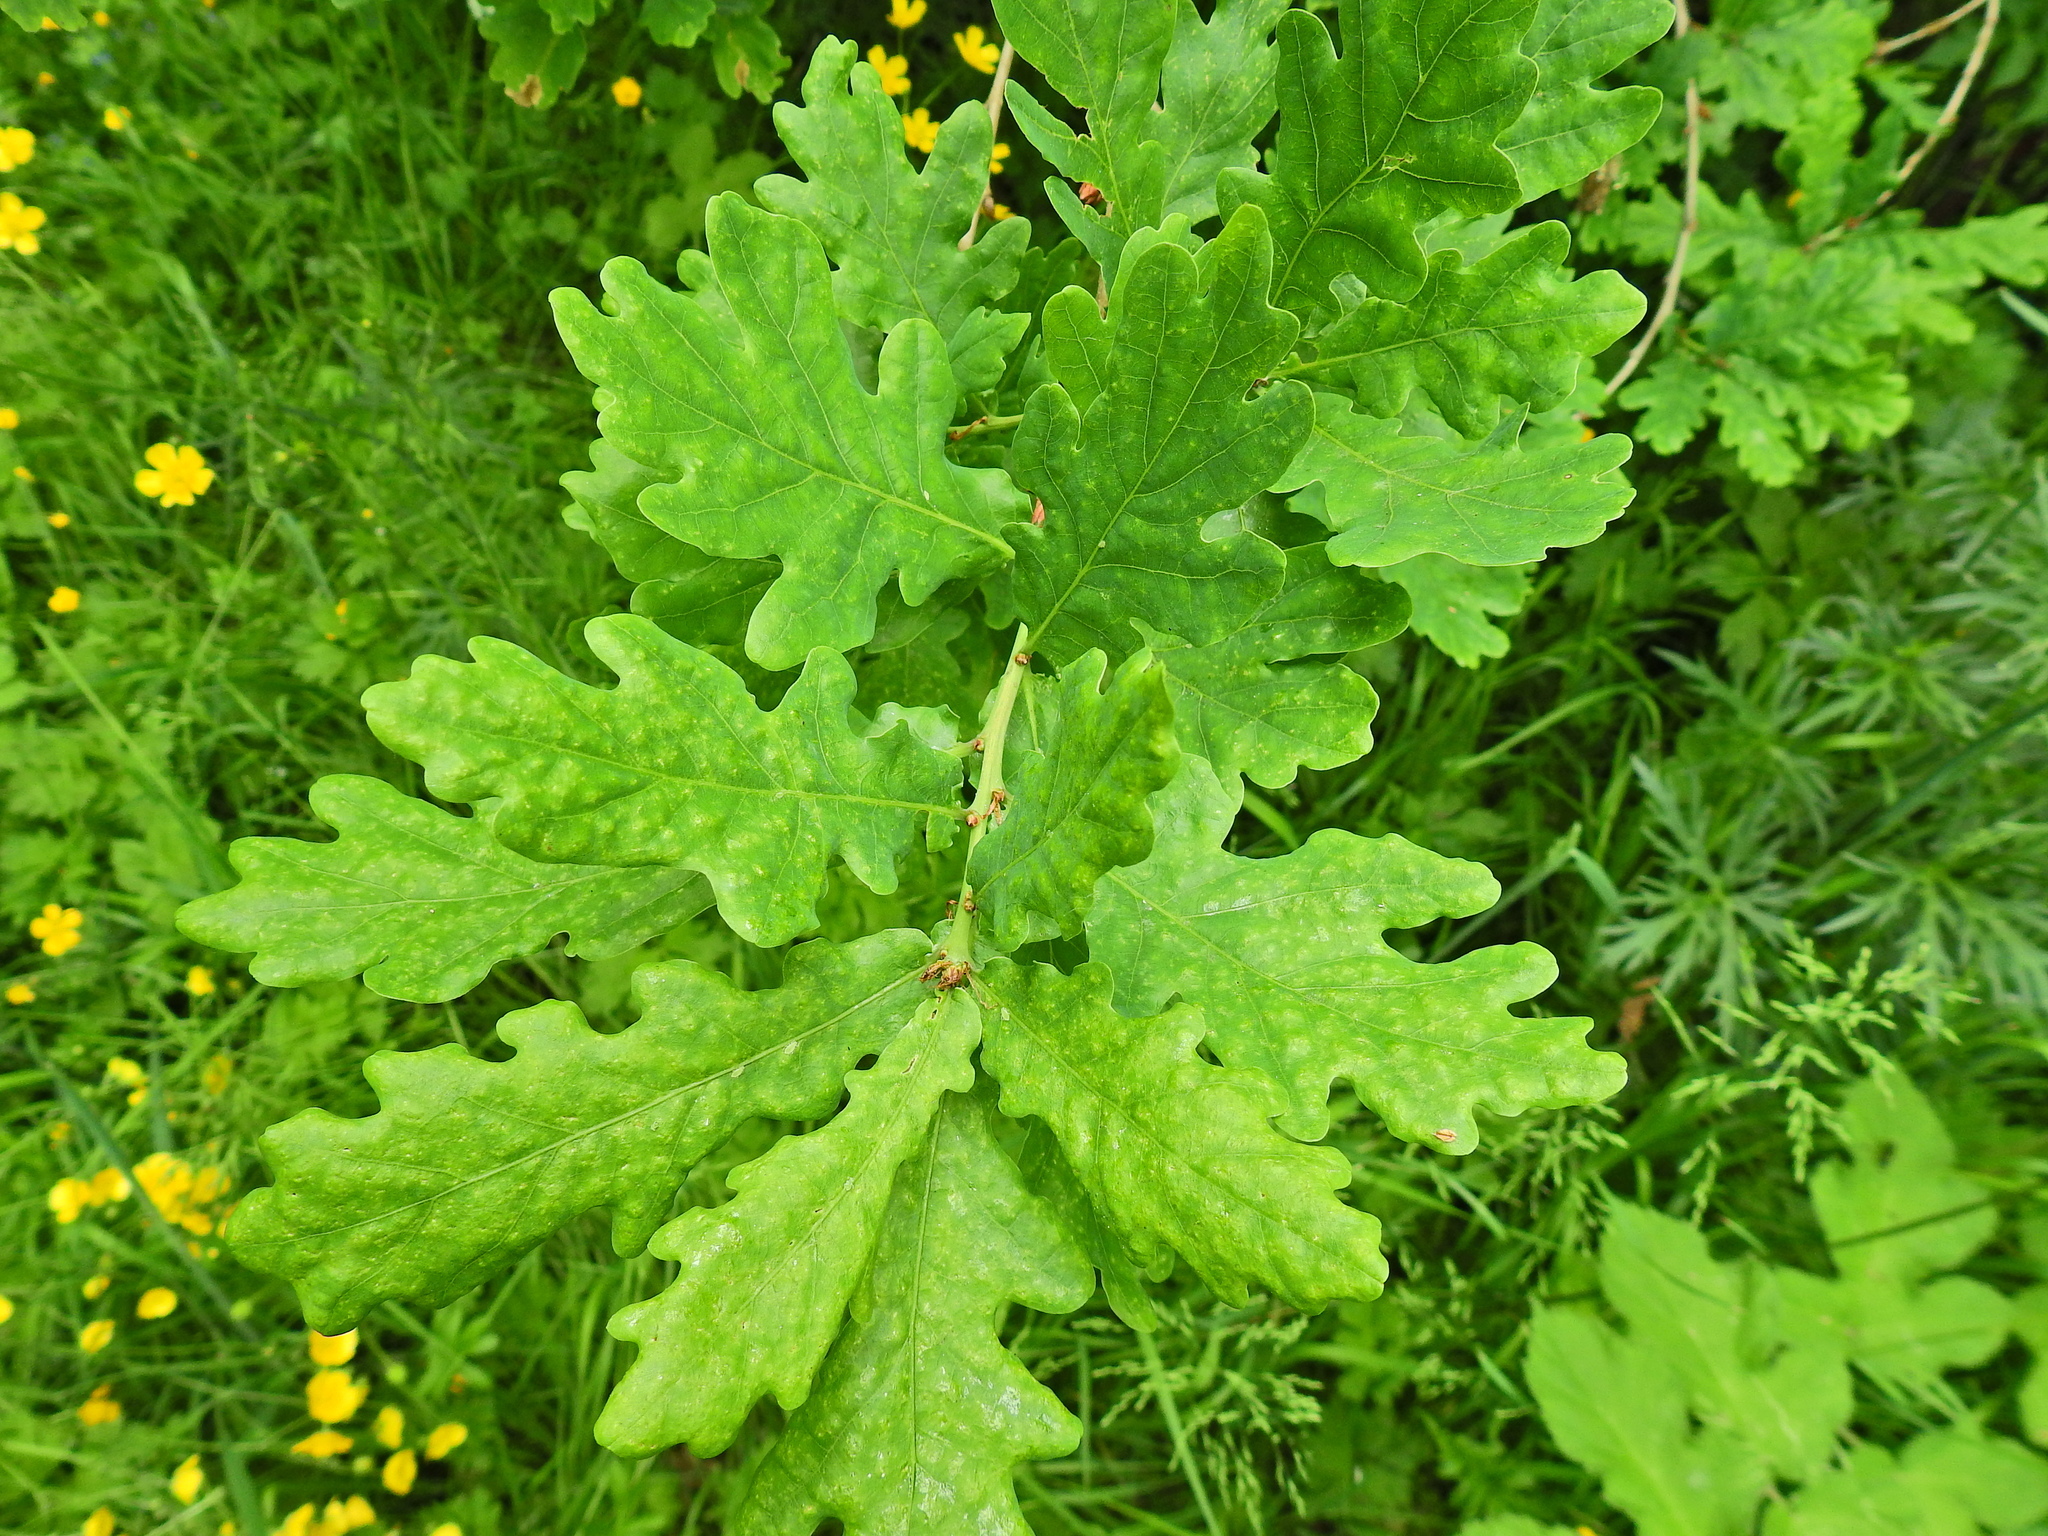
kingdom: Plantae
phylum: Tracheophyta
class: Magnoliopsida
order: Fagales
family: Fagaceae
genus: Quercus
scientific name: Quercus robur
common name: Pedunculate oak
